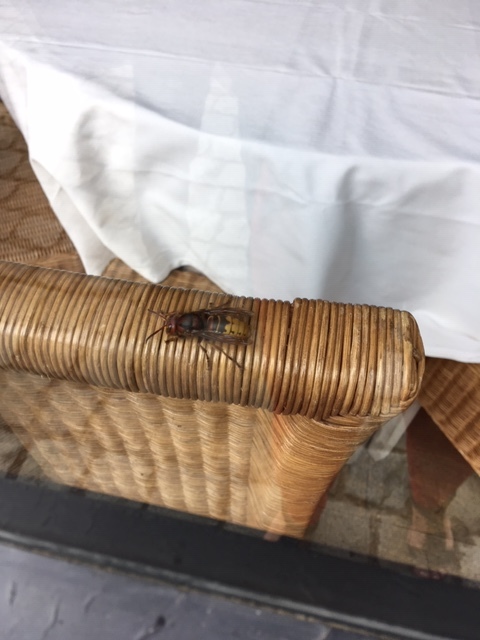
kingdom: Animalia
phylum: Arthropoda
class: Insecta
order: Hymenoptera
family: Vespidae
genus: Vespa
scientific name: Vespa crabro
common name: Hornet
